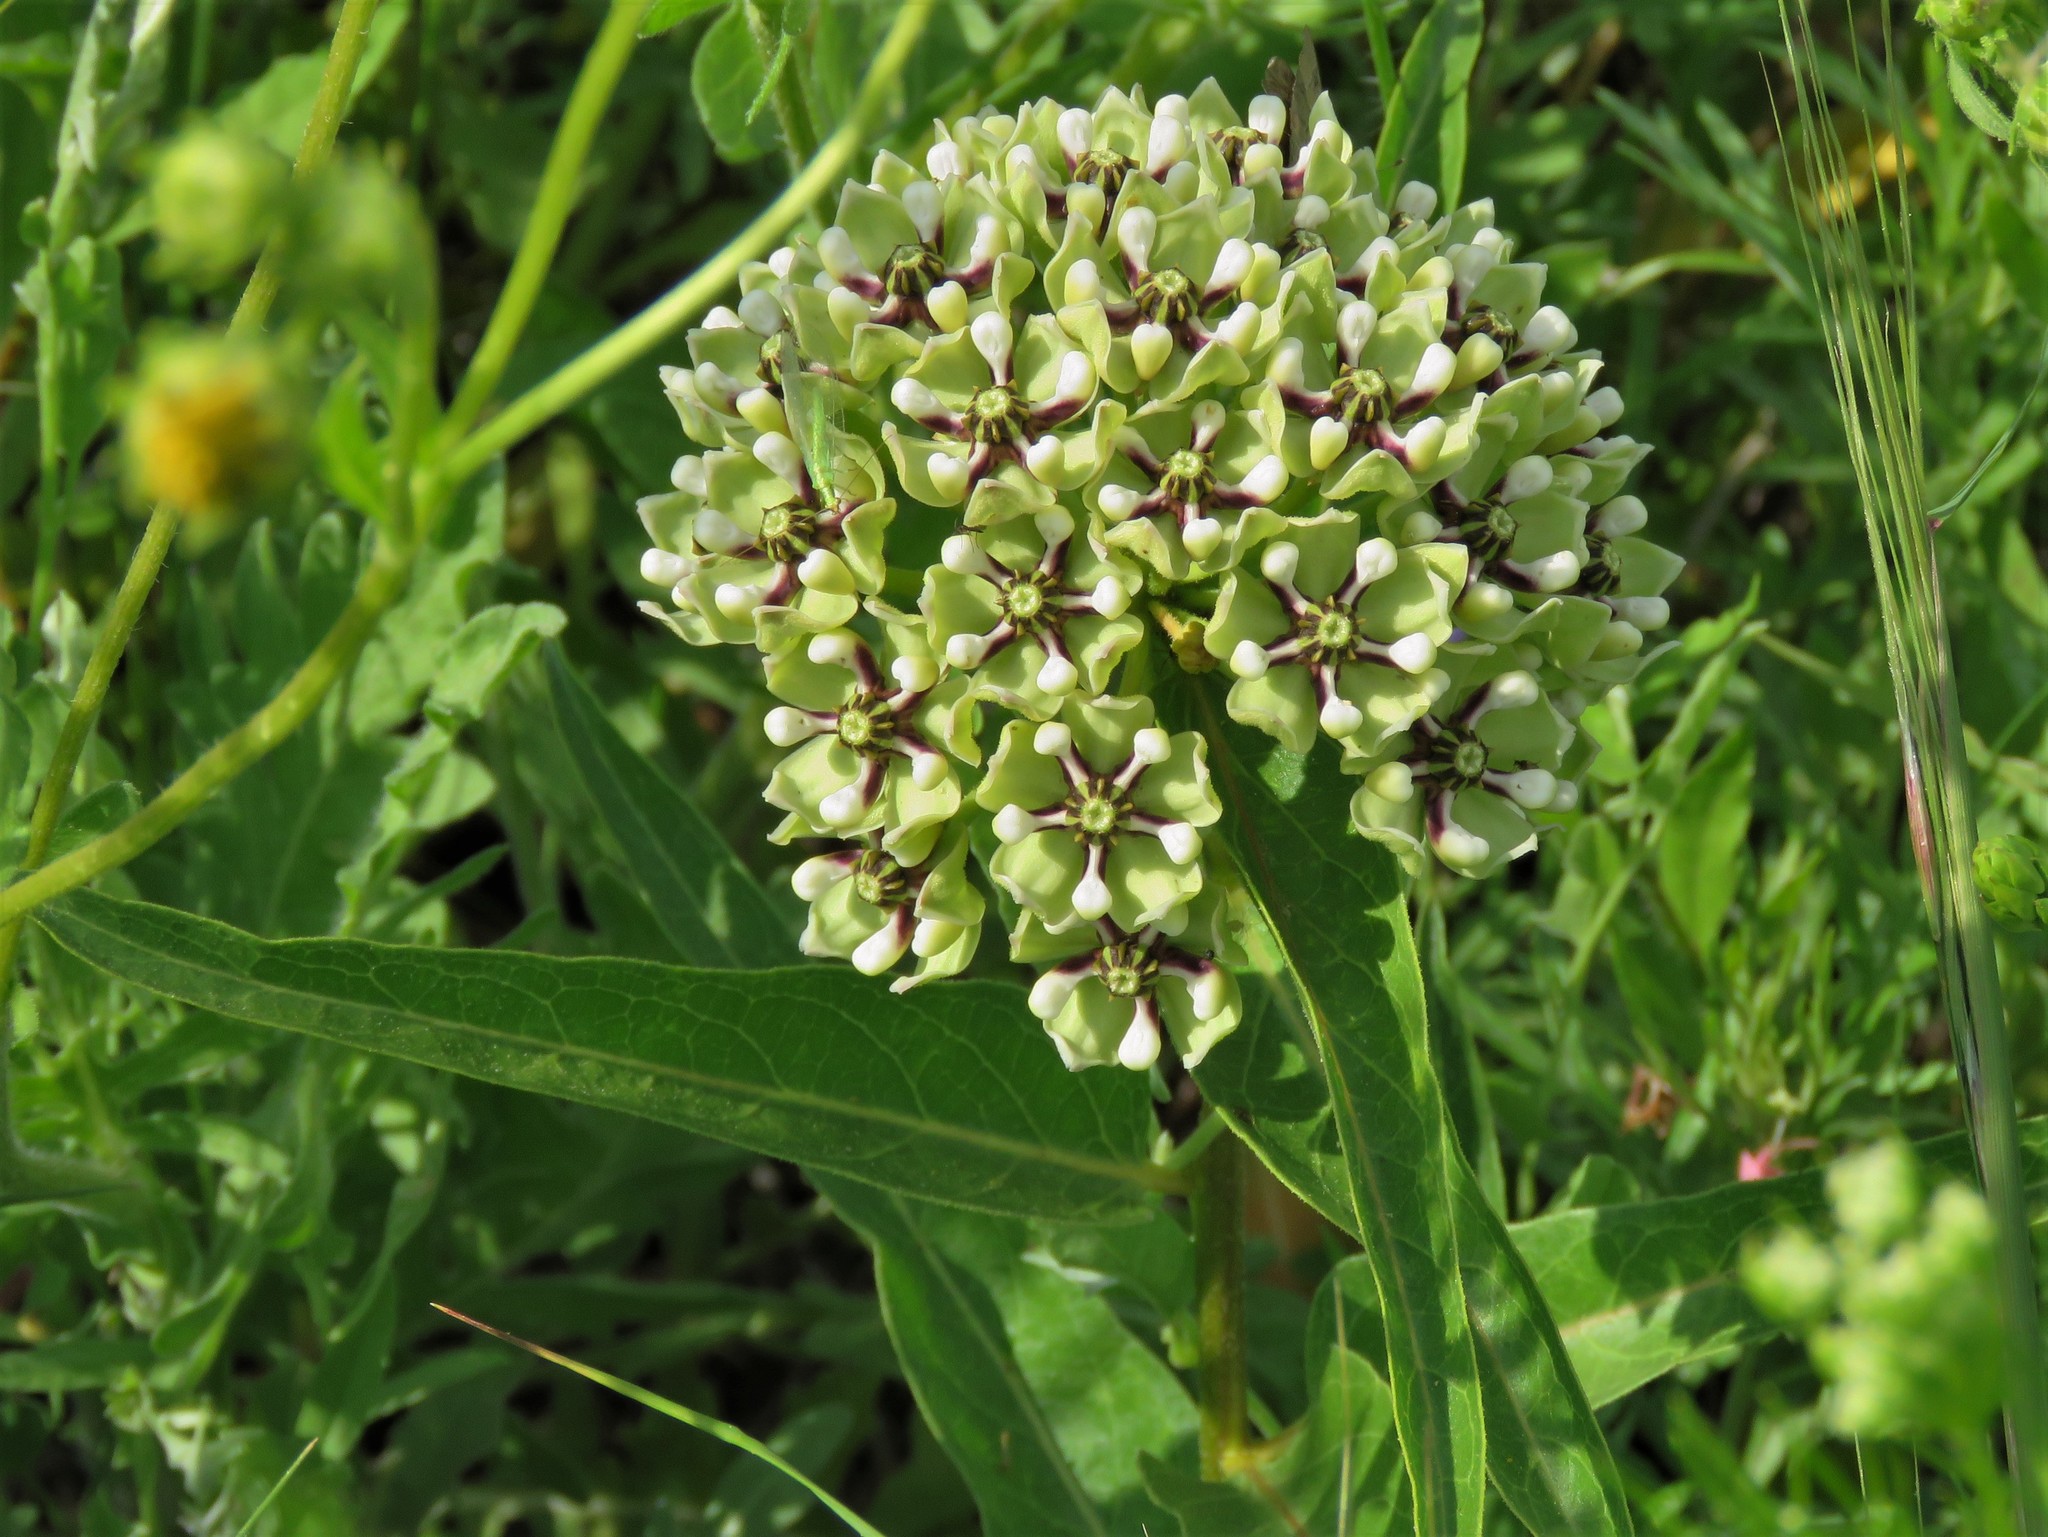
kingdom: Plantae
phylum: Tracheophyta
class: Magnoliopsida
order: Gentianales
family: Apocynaceae
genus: Asclepias
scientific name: Asclepias asperula
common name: Antelope horns
